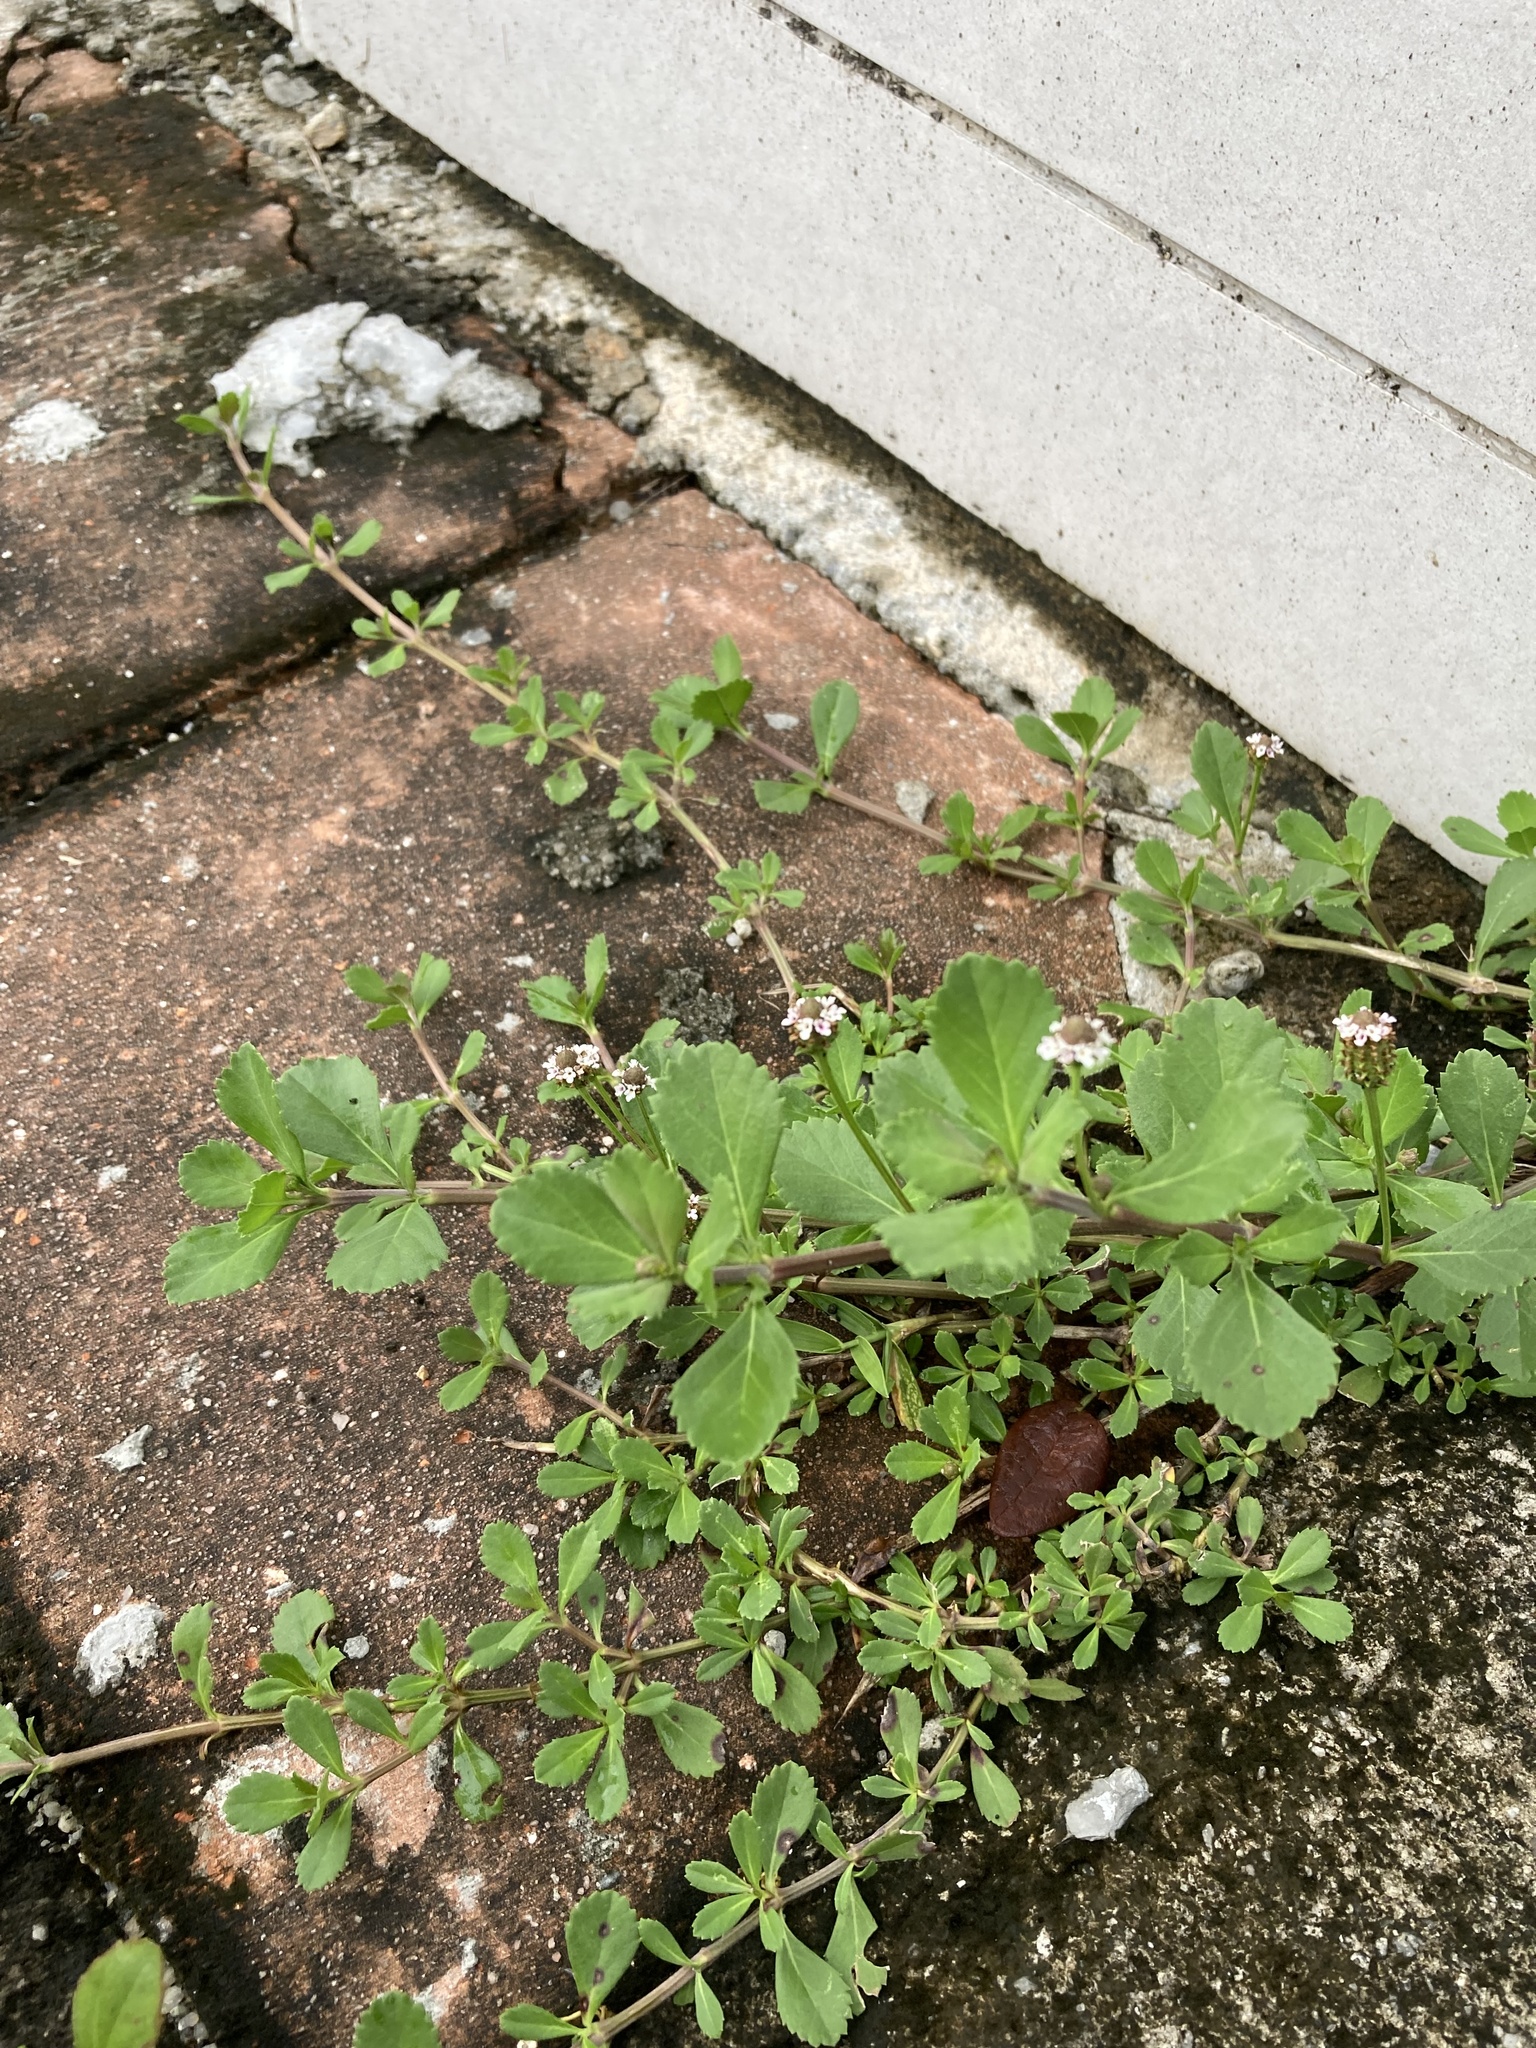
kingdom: Plantae
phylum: Tracheophyta
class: Magnoliopsida
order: Lamiales
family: Verbenaceae
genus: Phyla
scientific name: Phyla nodiflora
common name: Frogfruit
